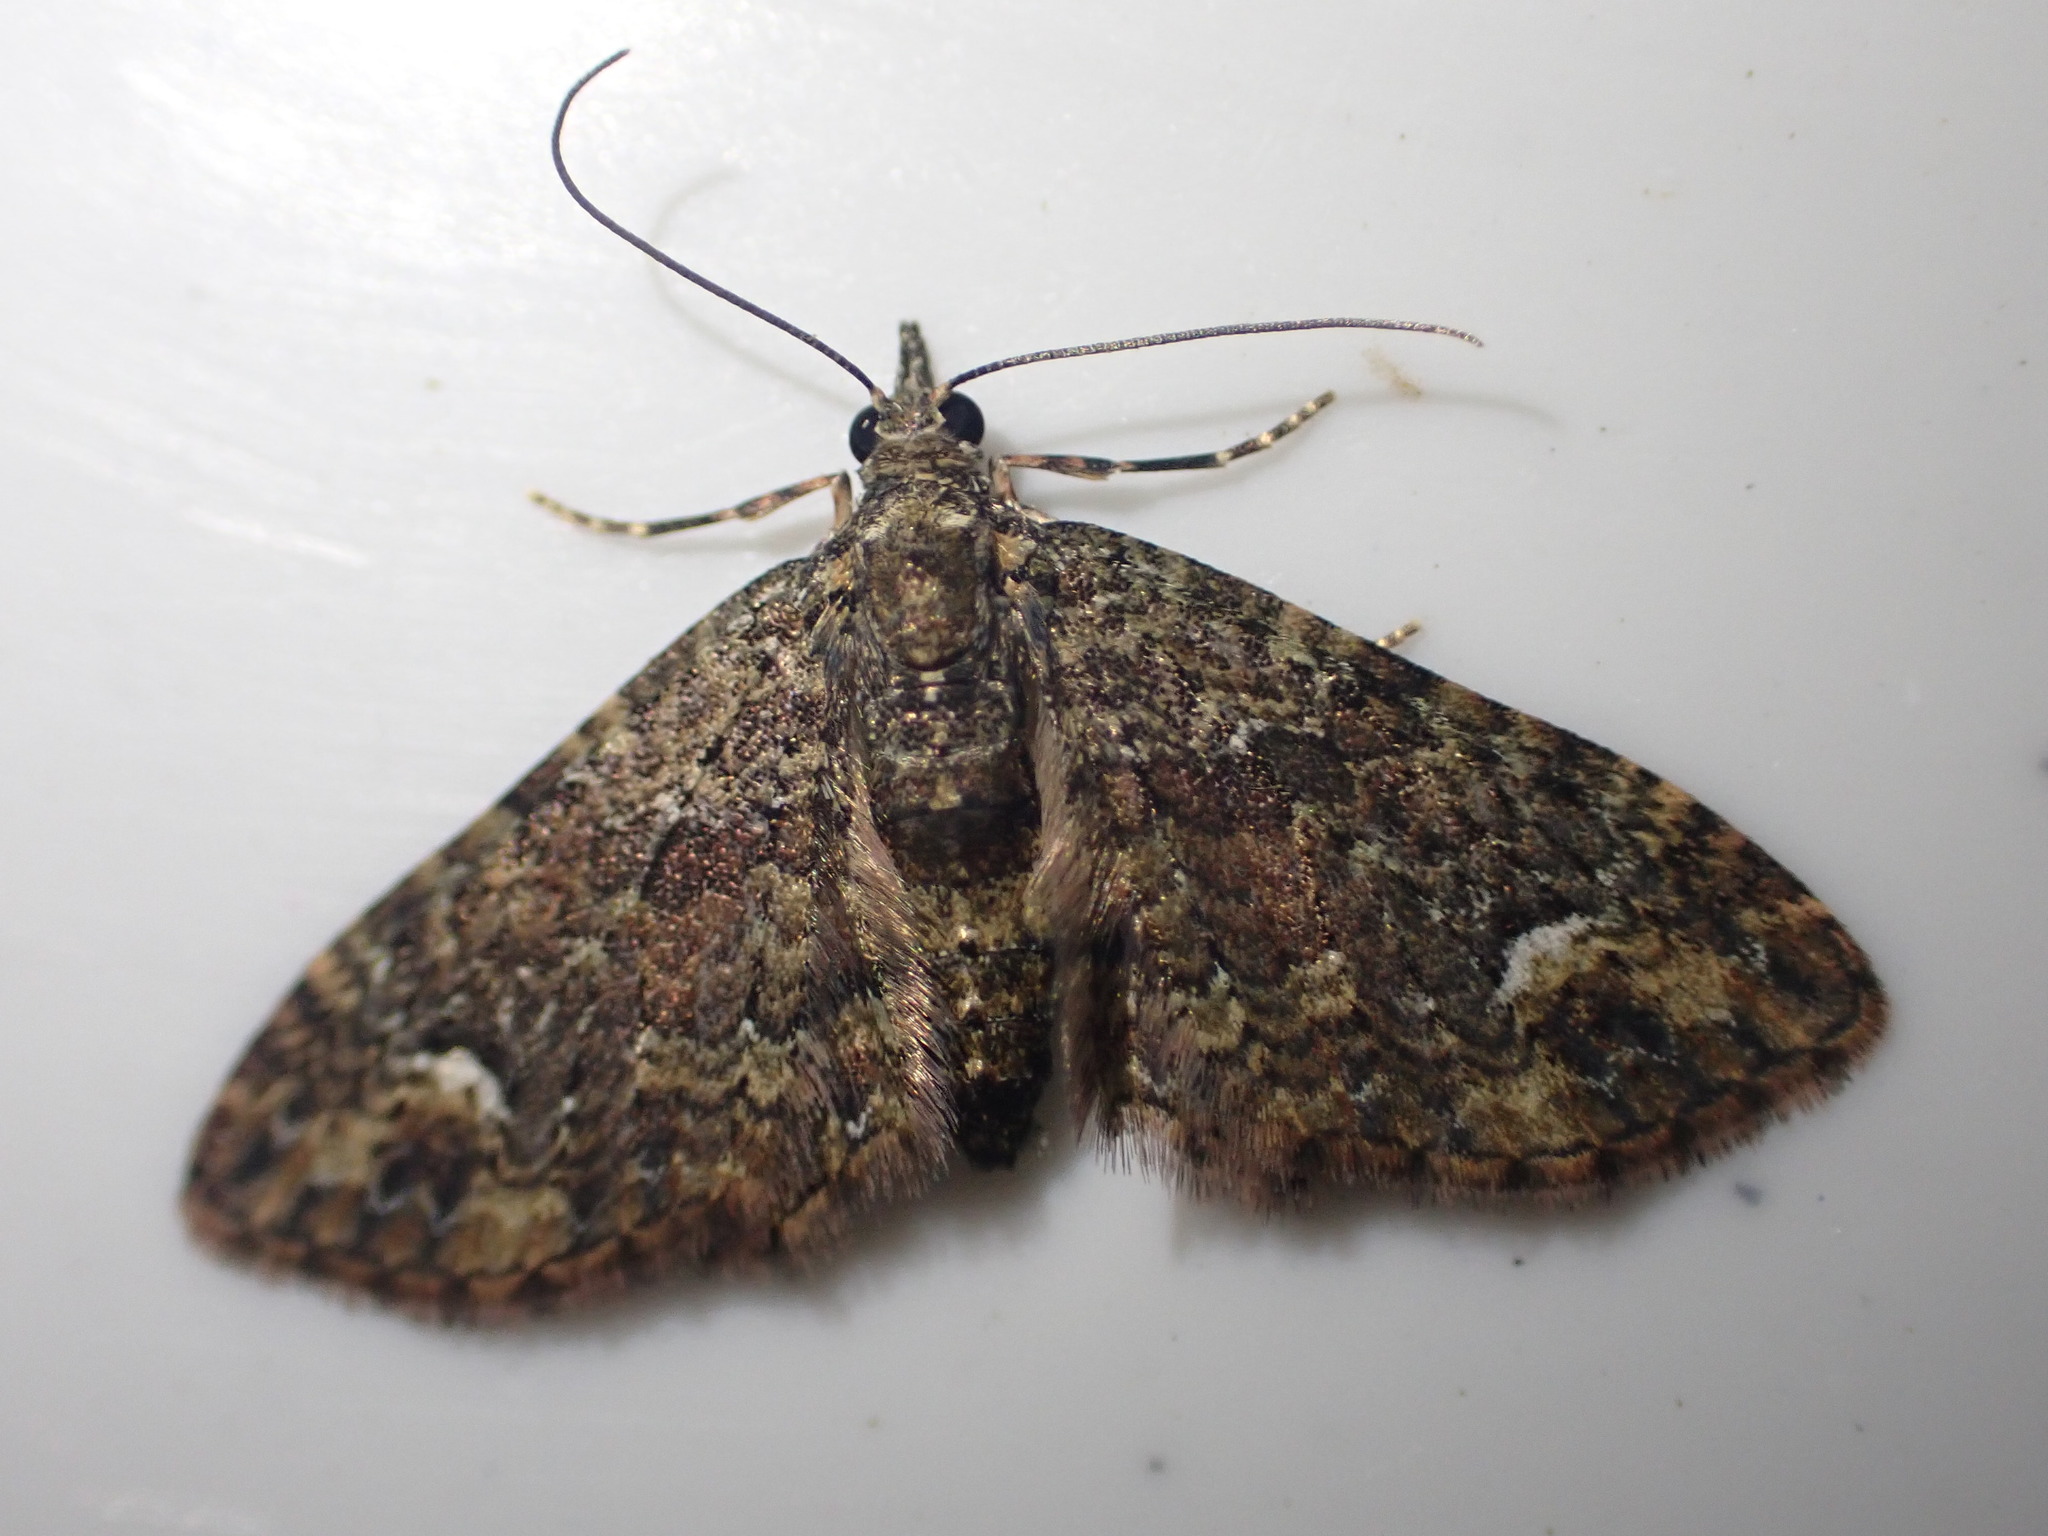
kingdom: Animalia
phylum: Arthropoda
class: Insecta
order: Lepidoptera
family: Geometridae
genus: Pasiphilodes
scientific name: Pasiphilodes testulata
